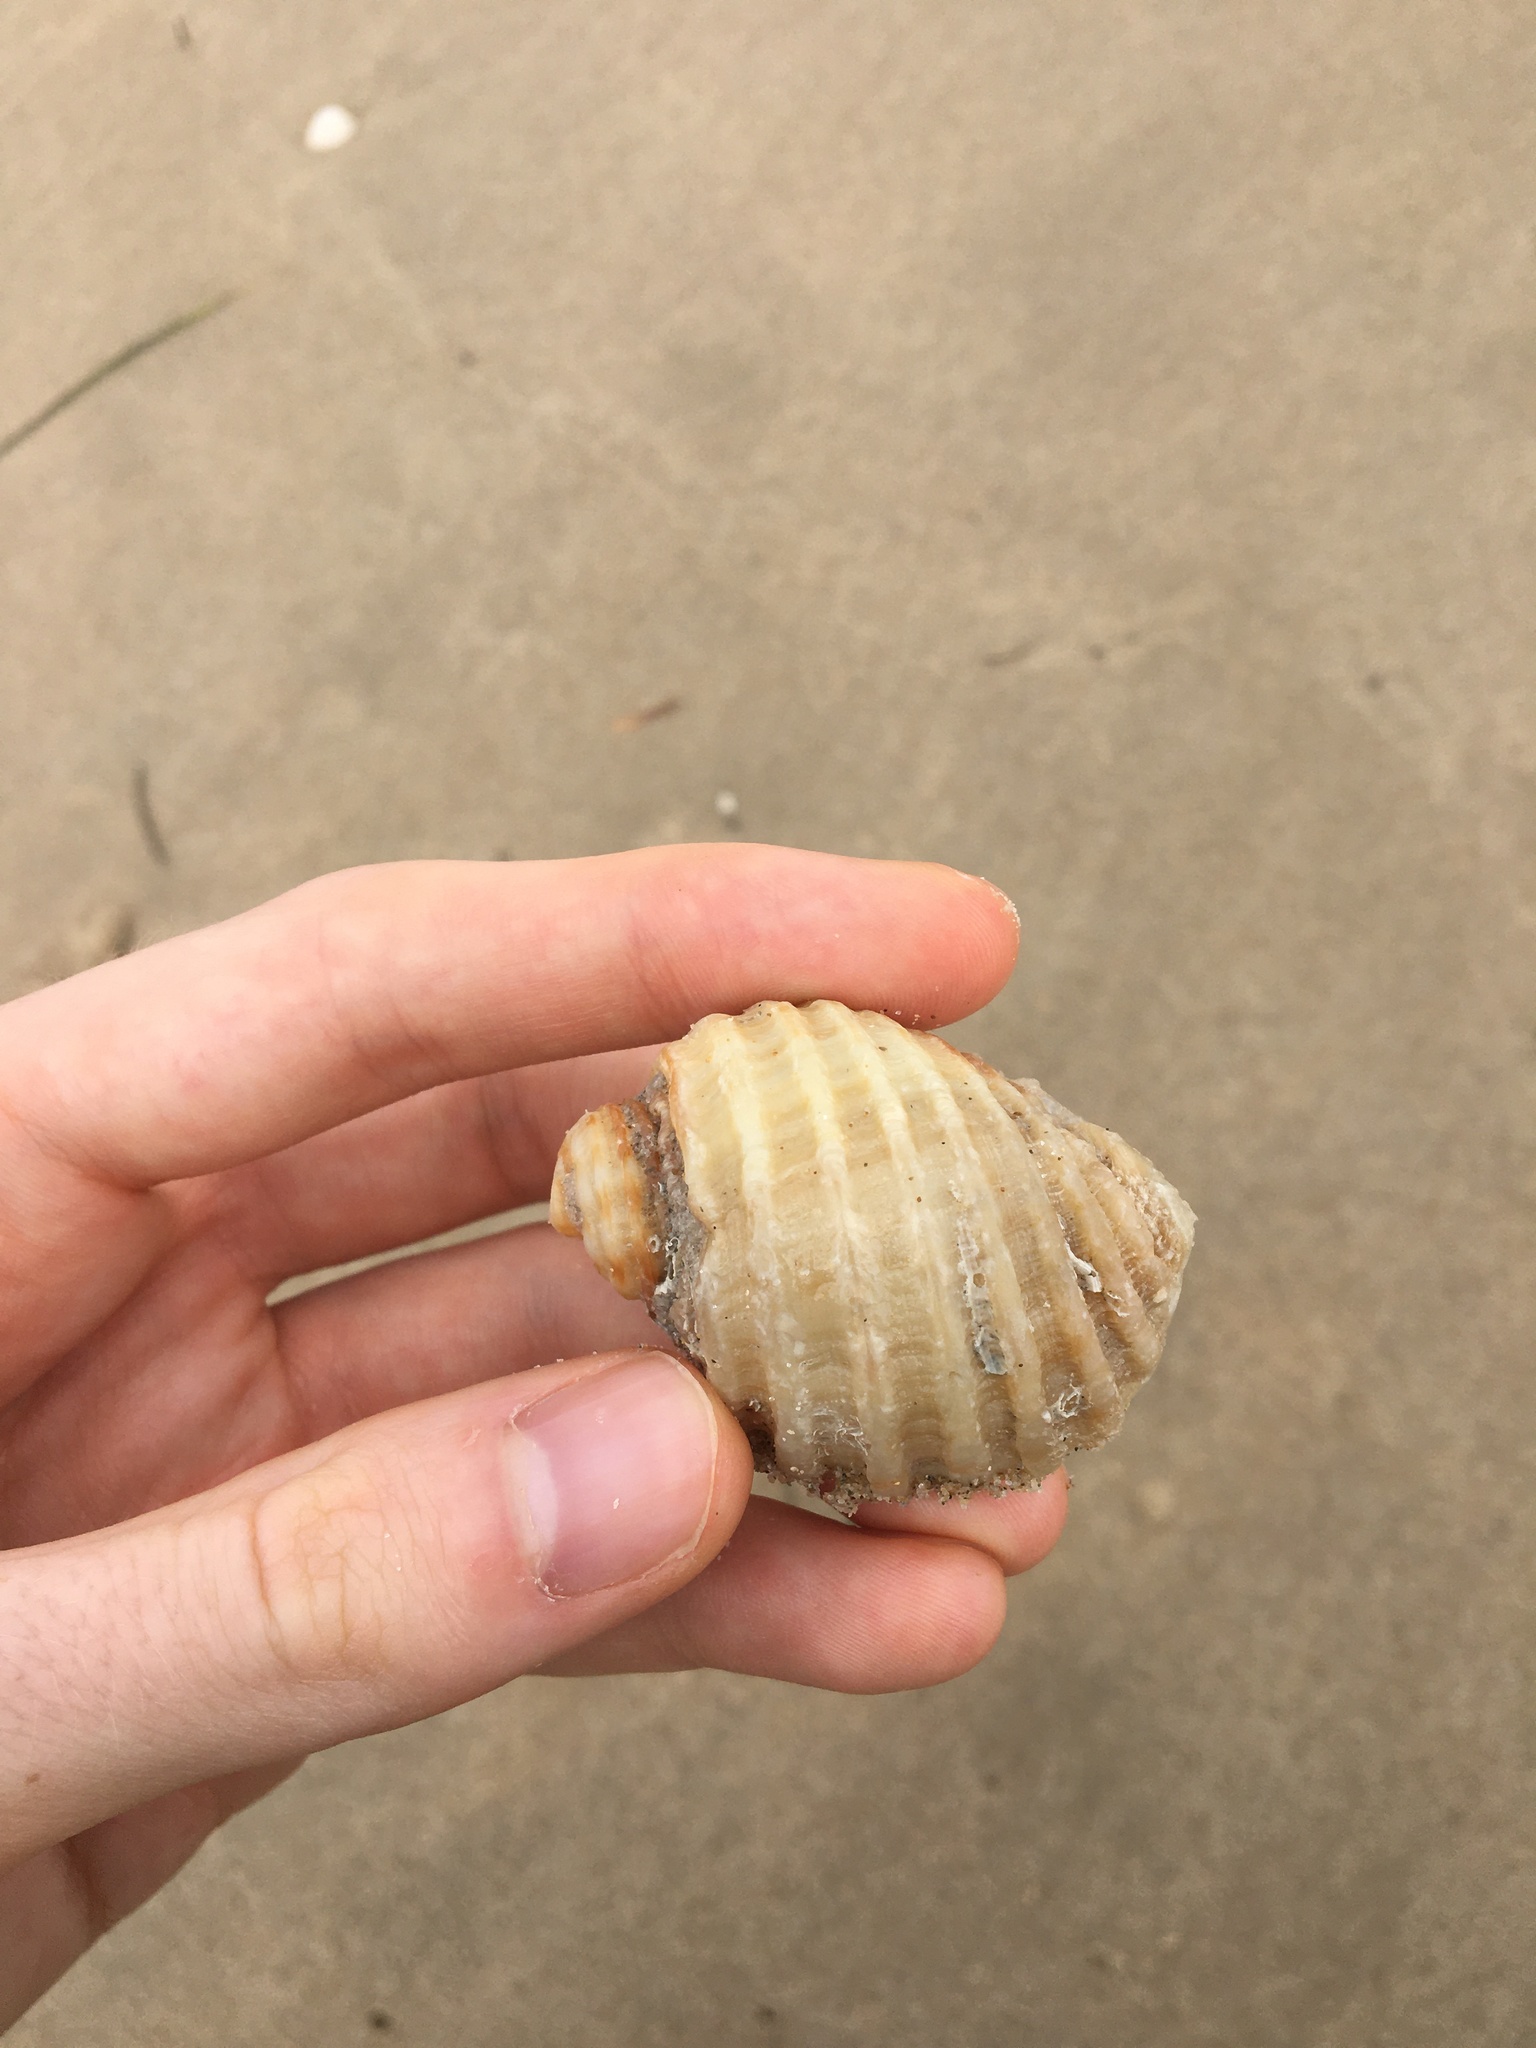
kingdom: Animalia
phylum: Mollusca
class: Gastropoda
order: Neogastropoda
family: Muricidae
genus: Dicathais
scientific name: Dicathais orbita
